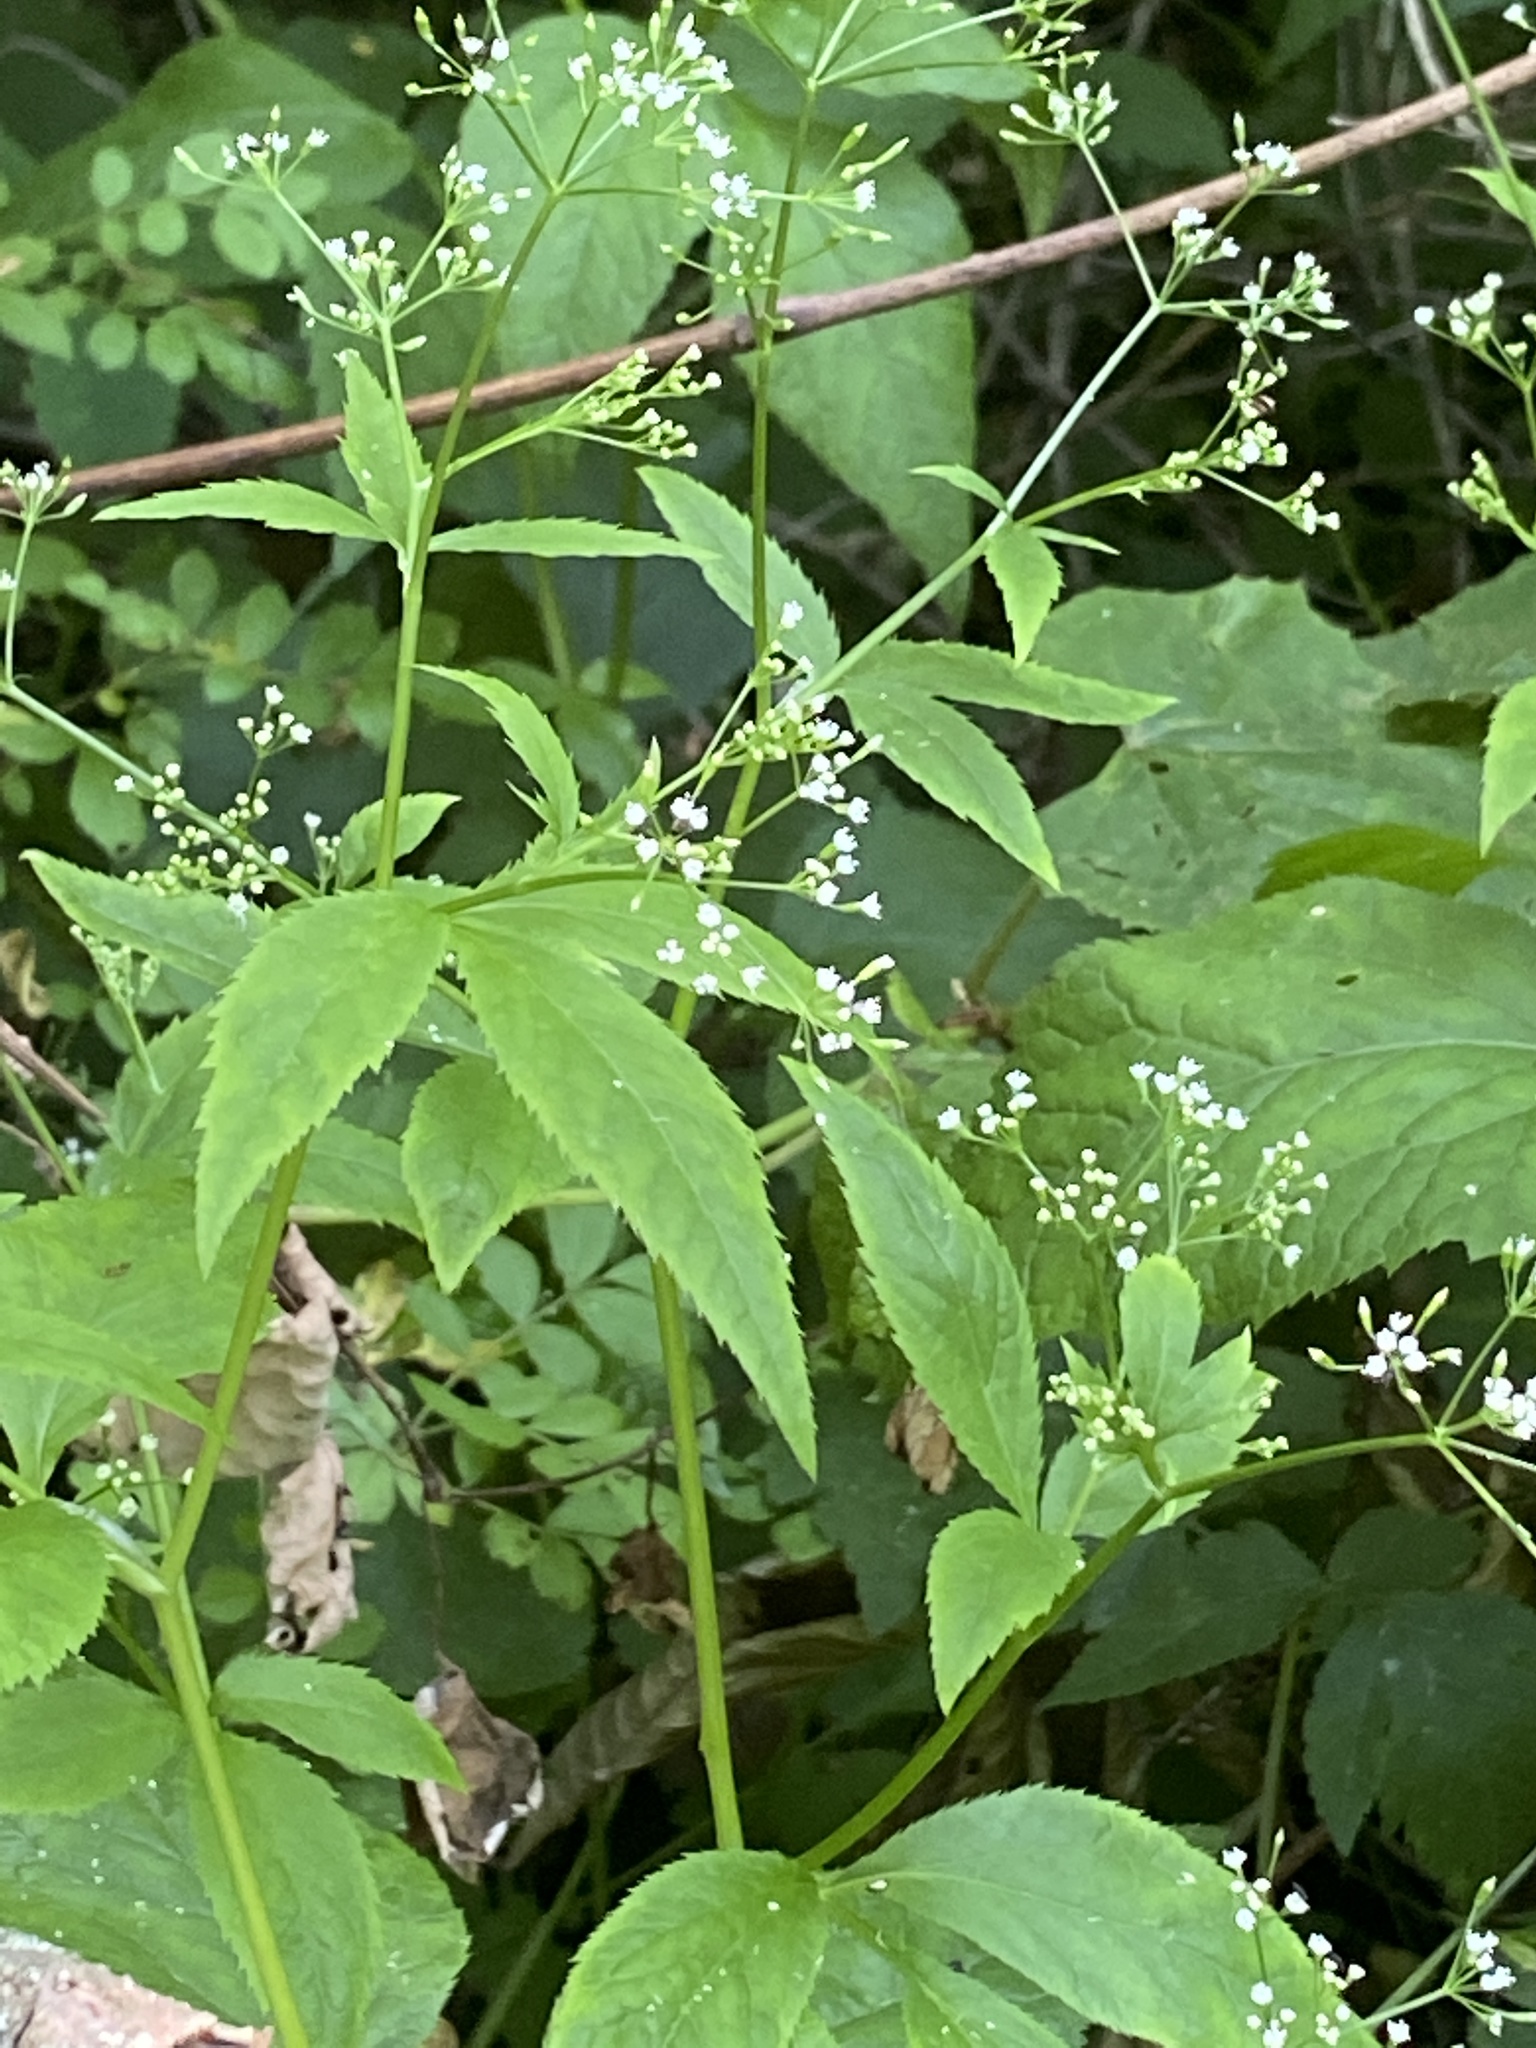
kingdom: Plantae
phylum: Tracheophyta
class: Magnoliopsida
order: Apiales
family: Apiaceae
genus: Cryptotaenia
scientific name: Cryptotaenia canadensis
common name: Honewort
